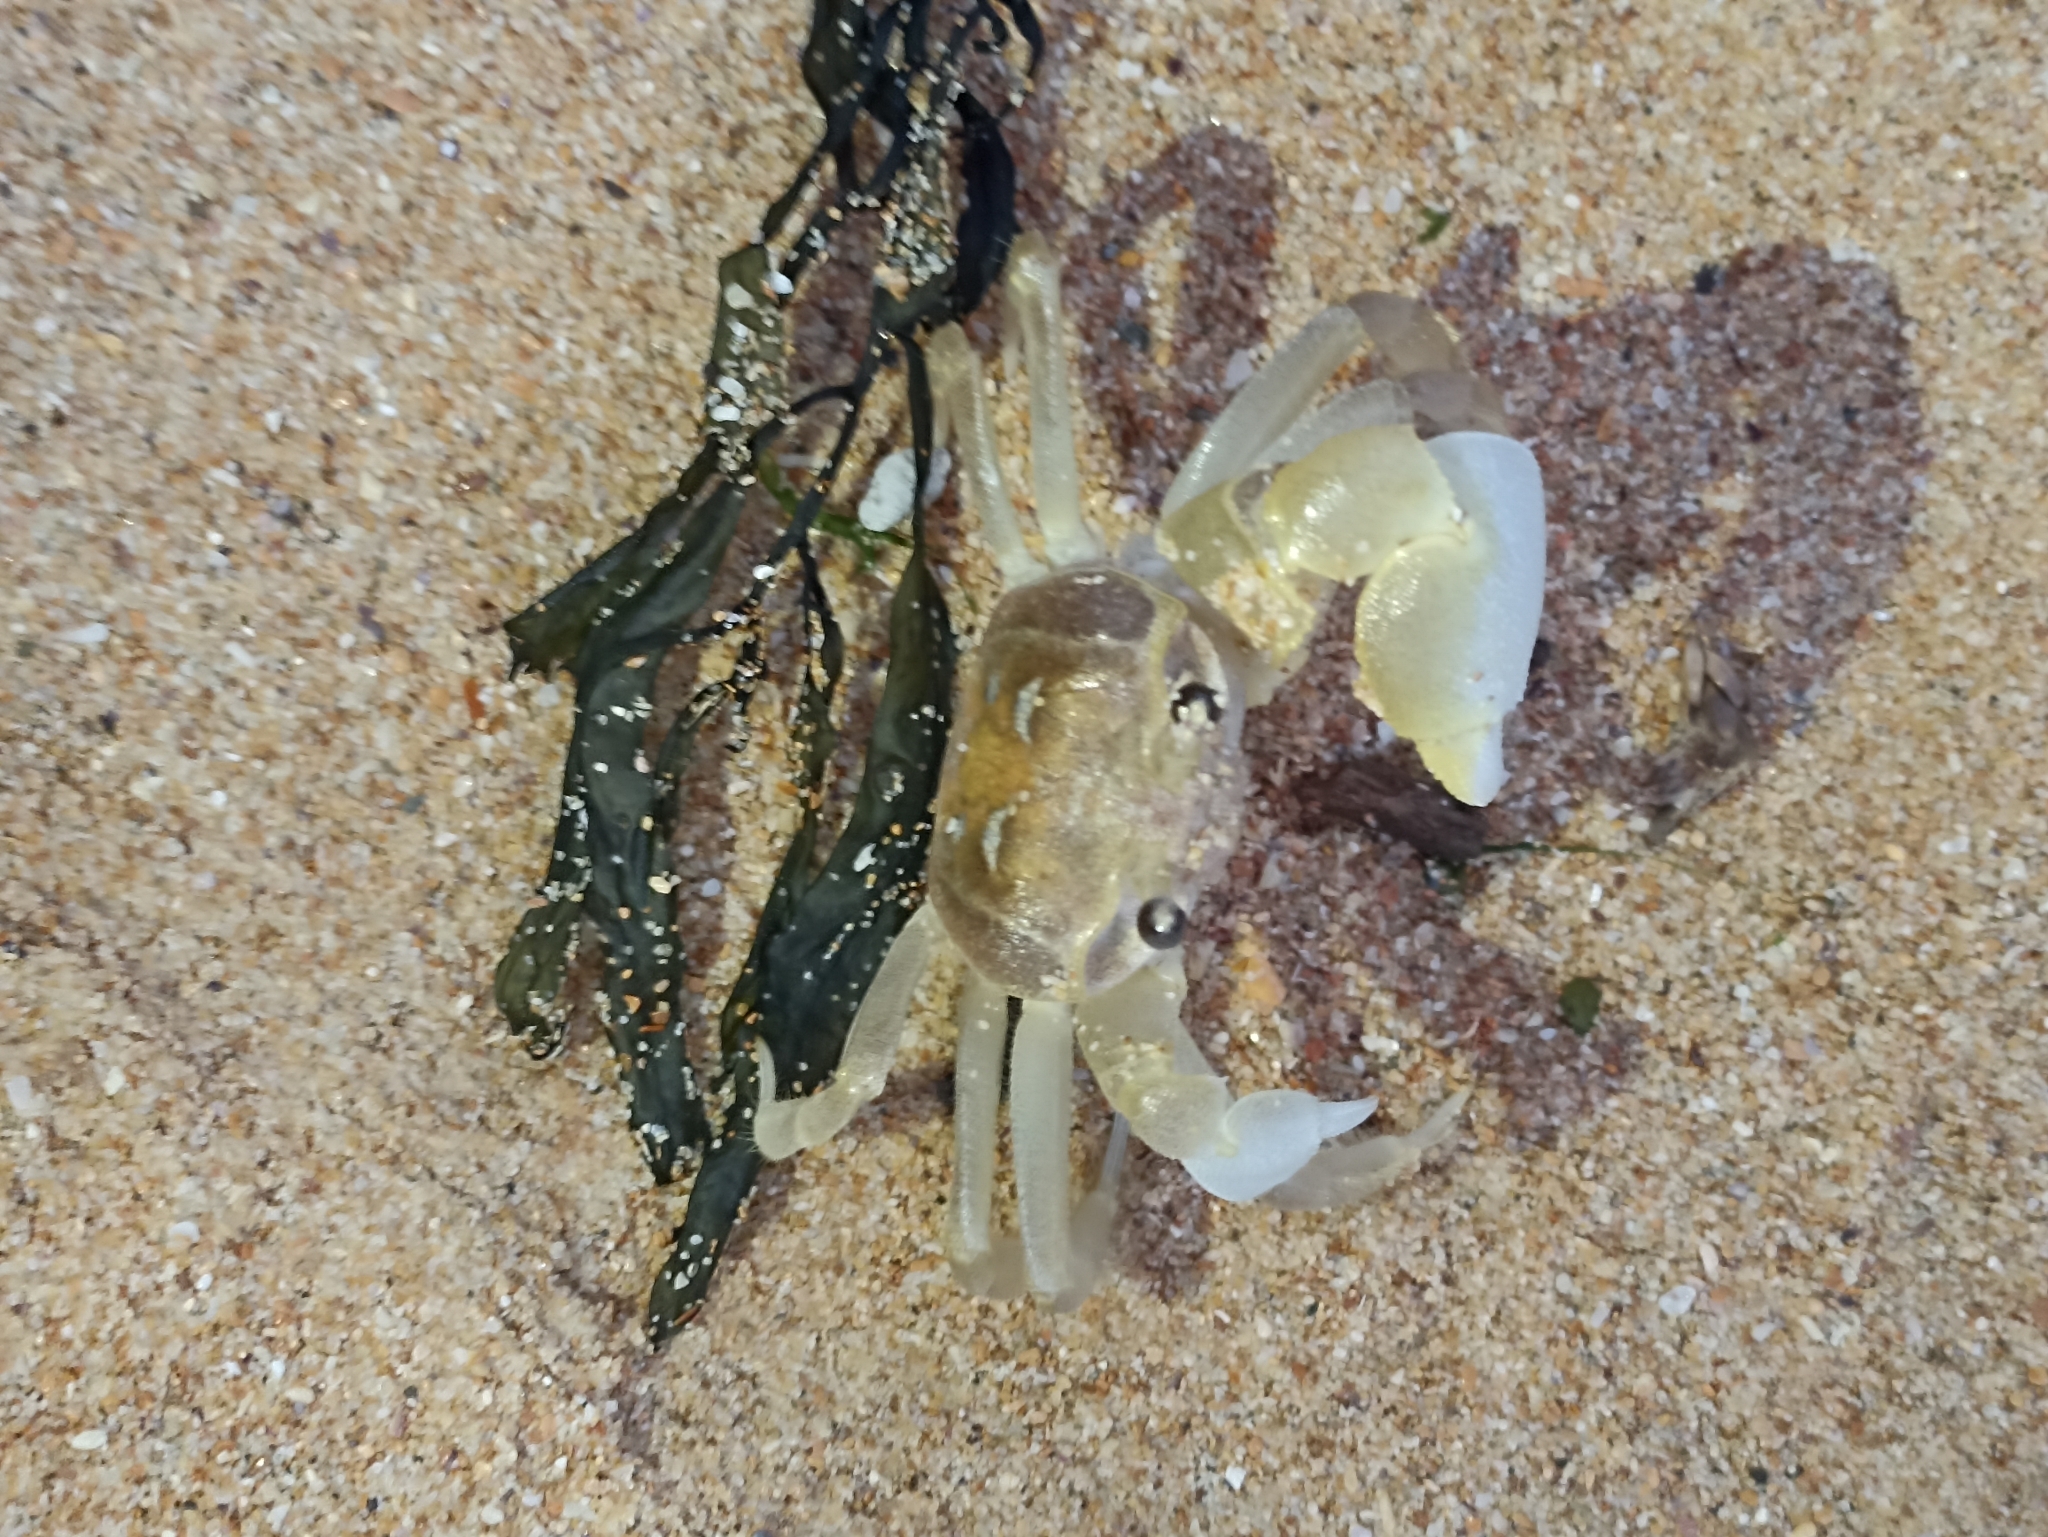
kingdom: Animalia
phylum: Arthropoda
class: Malacostraca
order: Decapoda
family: Ocypodidae
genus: Ocypode
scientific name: Ocypode cordimana
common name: Smooth-eyed ghost crab
